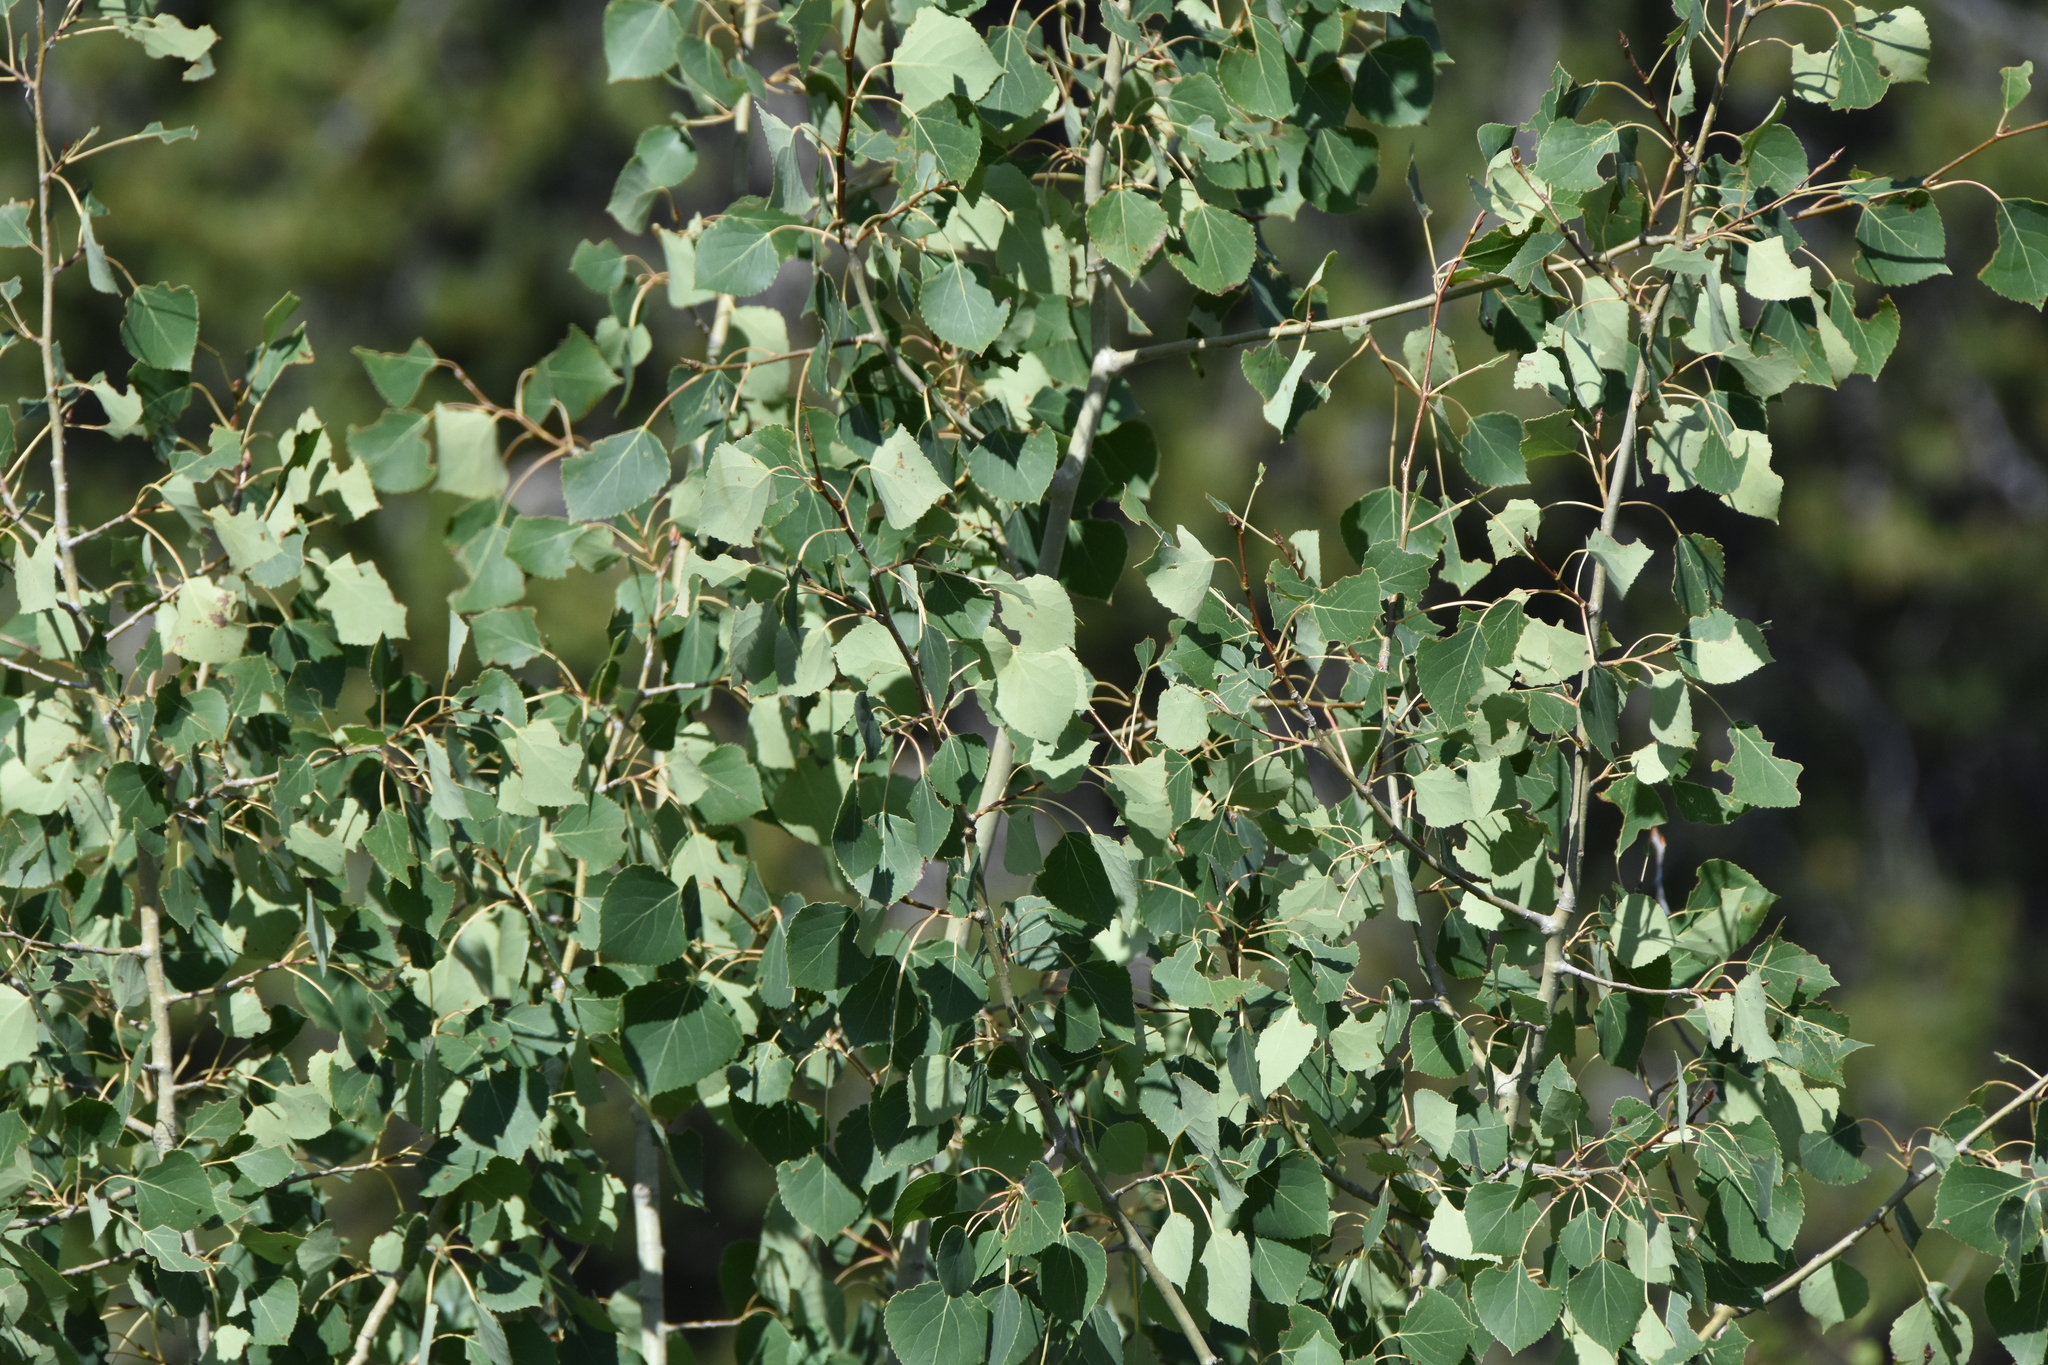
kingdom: Plantae
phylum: Tracheophyta
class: Magnoliopsida
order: Malpighiales
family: Salicaceae
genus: Populus
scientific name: Populus tremuloides
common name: Quaking aspen
